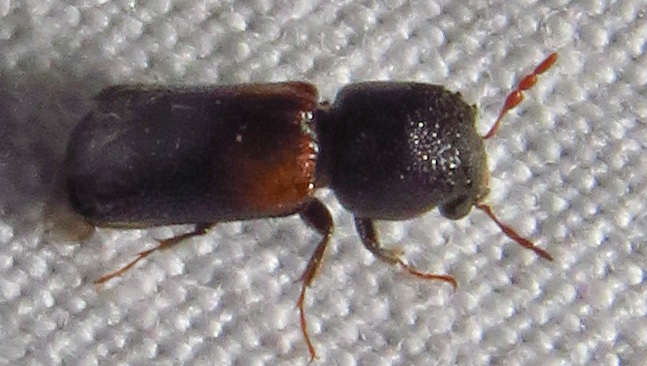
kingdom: Animalia
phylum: Arthropoda
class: Insecta
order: Coleoptera
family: Bostrichidae
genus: Xylobiops
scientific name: Xylobiops basilaris
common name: Red-shouldered bostrichid
